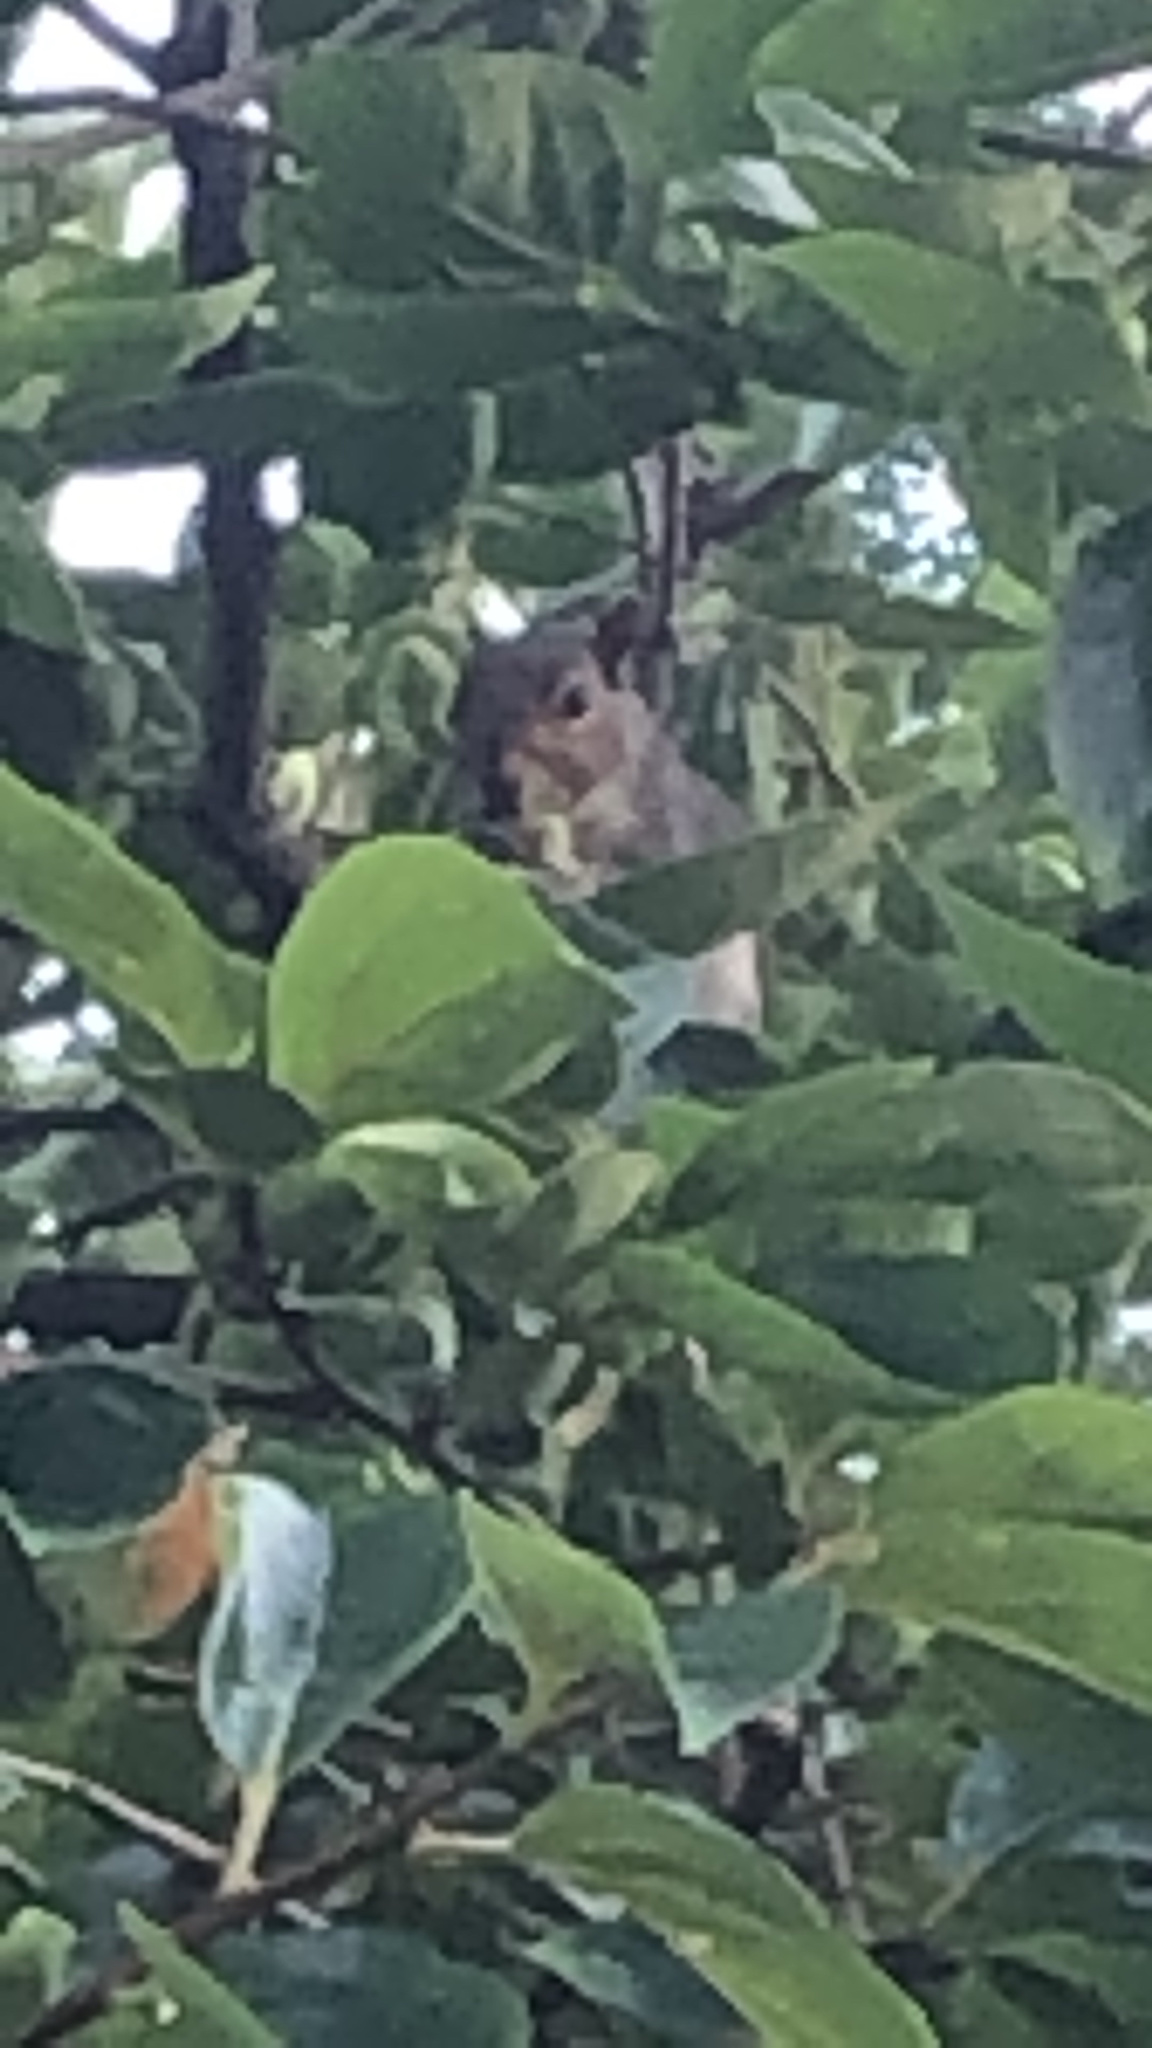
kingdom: Animalia
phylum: Chordata
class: Mammalia
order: Rodentia
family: Sciuridae
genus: Sciurus
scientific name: Sciurus carolinensis
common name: Eastern gray squirrel
